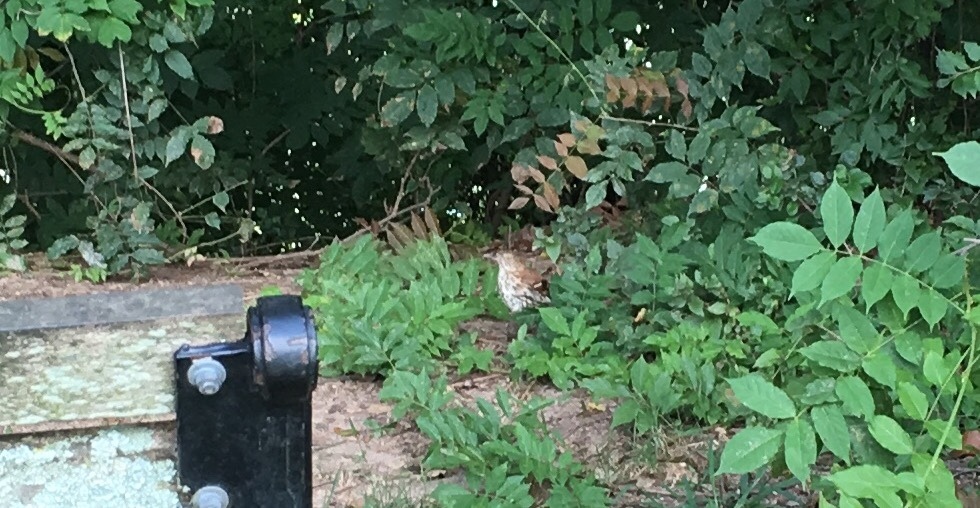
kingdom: Animalia
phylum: Chordata
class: Aves
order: Passeriformes
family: Mimidae
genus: Toxostoma
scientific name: Toxostoma rufum
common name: Brown thrasher
